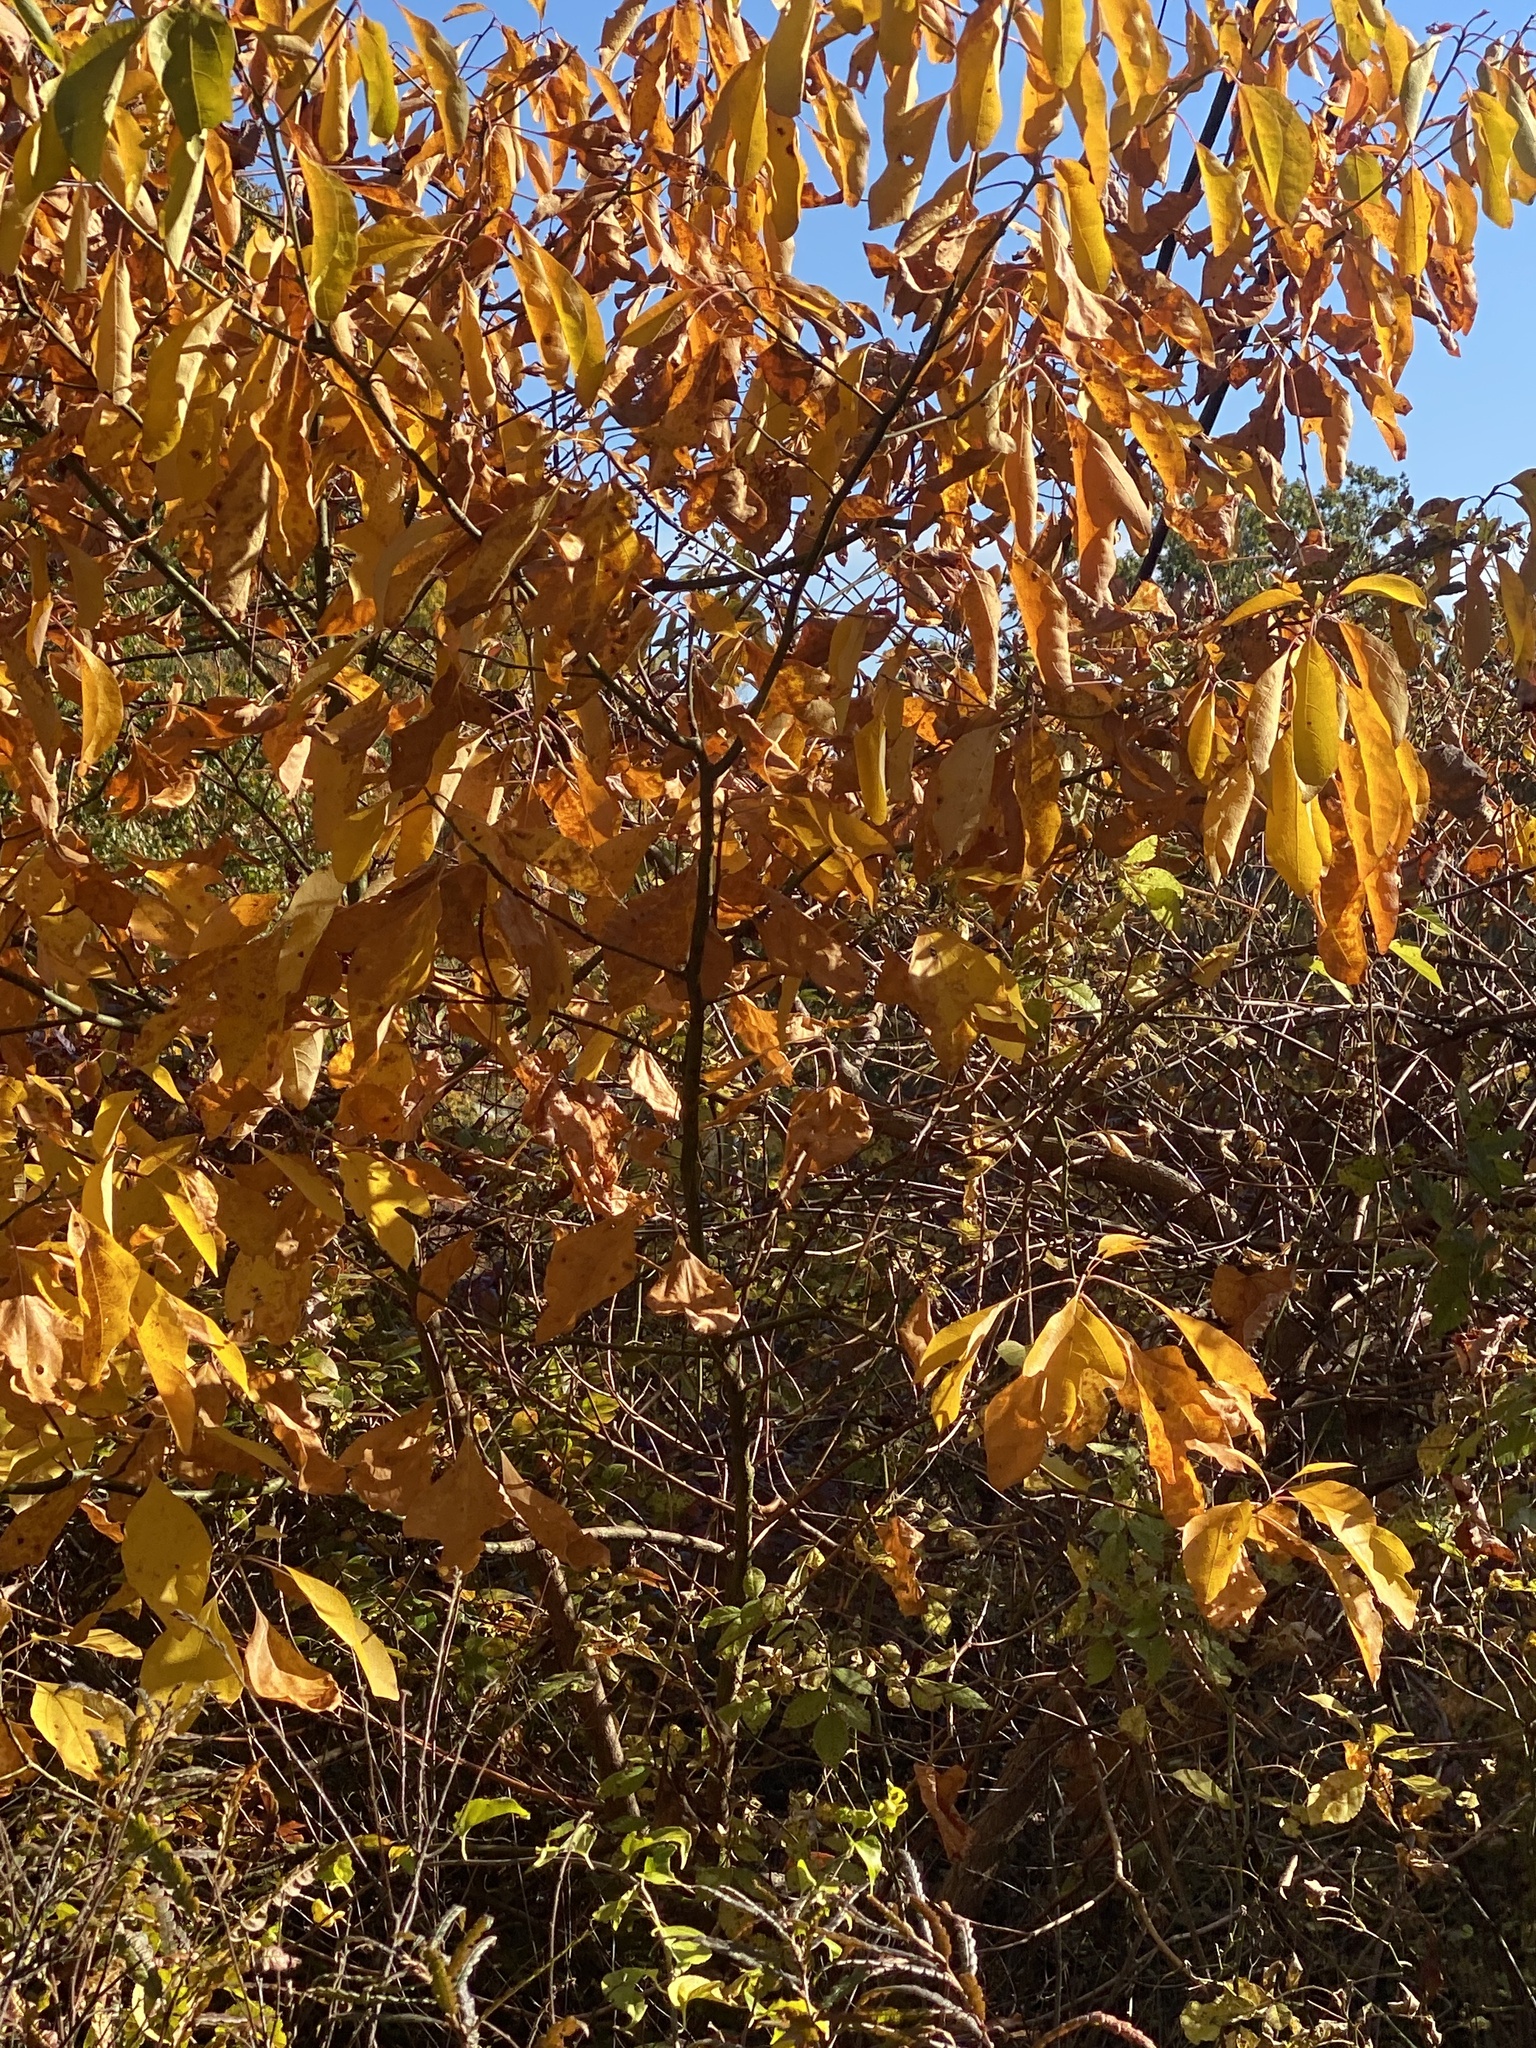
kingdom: Plantae
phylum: Tracheophyta
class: Magnoliopsida
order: Laurales
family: Lauraceae
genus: Sassafras
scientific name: Sassafras albidum
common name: Sassafras
